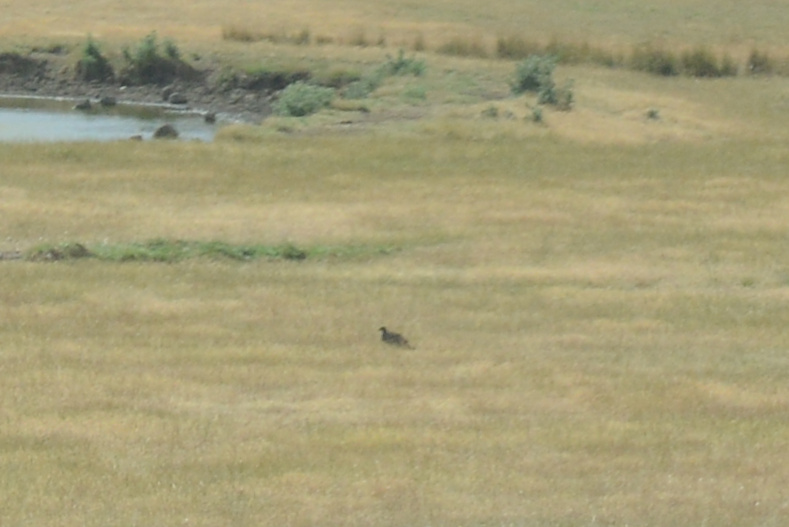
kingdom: Animalia
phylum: Chordata
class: Aves
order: Gruiformes
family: Rallidae
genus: Gallinula
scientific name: Gallinula mortierii
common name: Tasmanian nativehen
